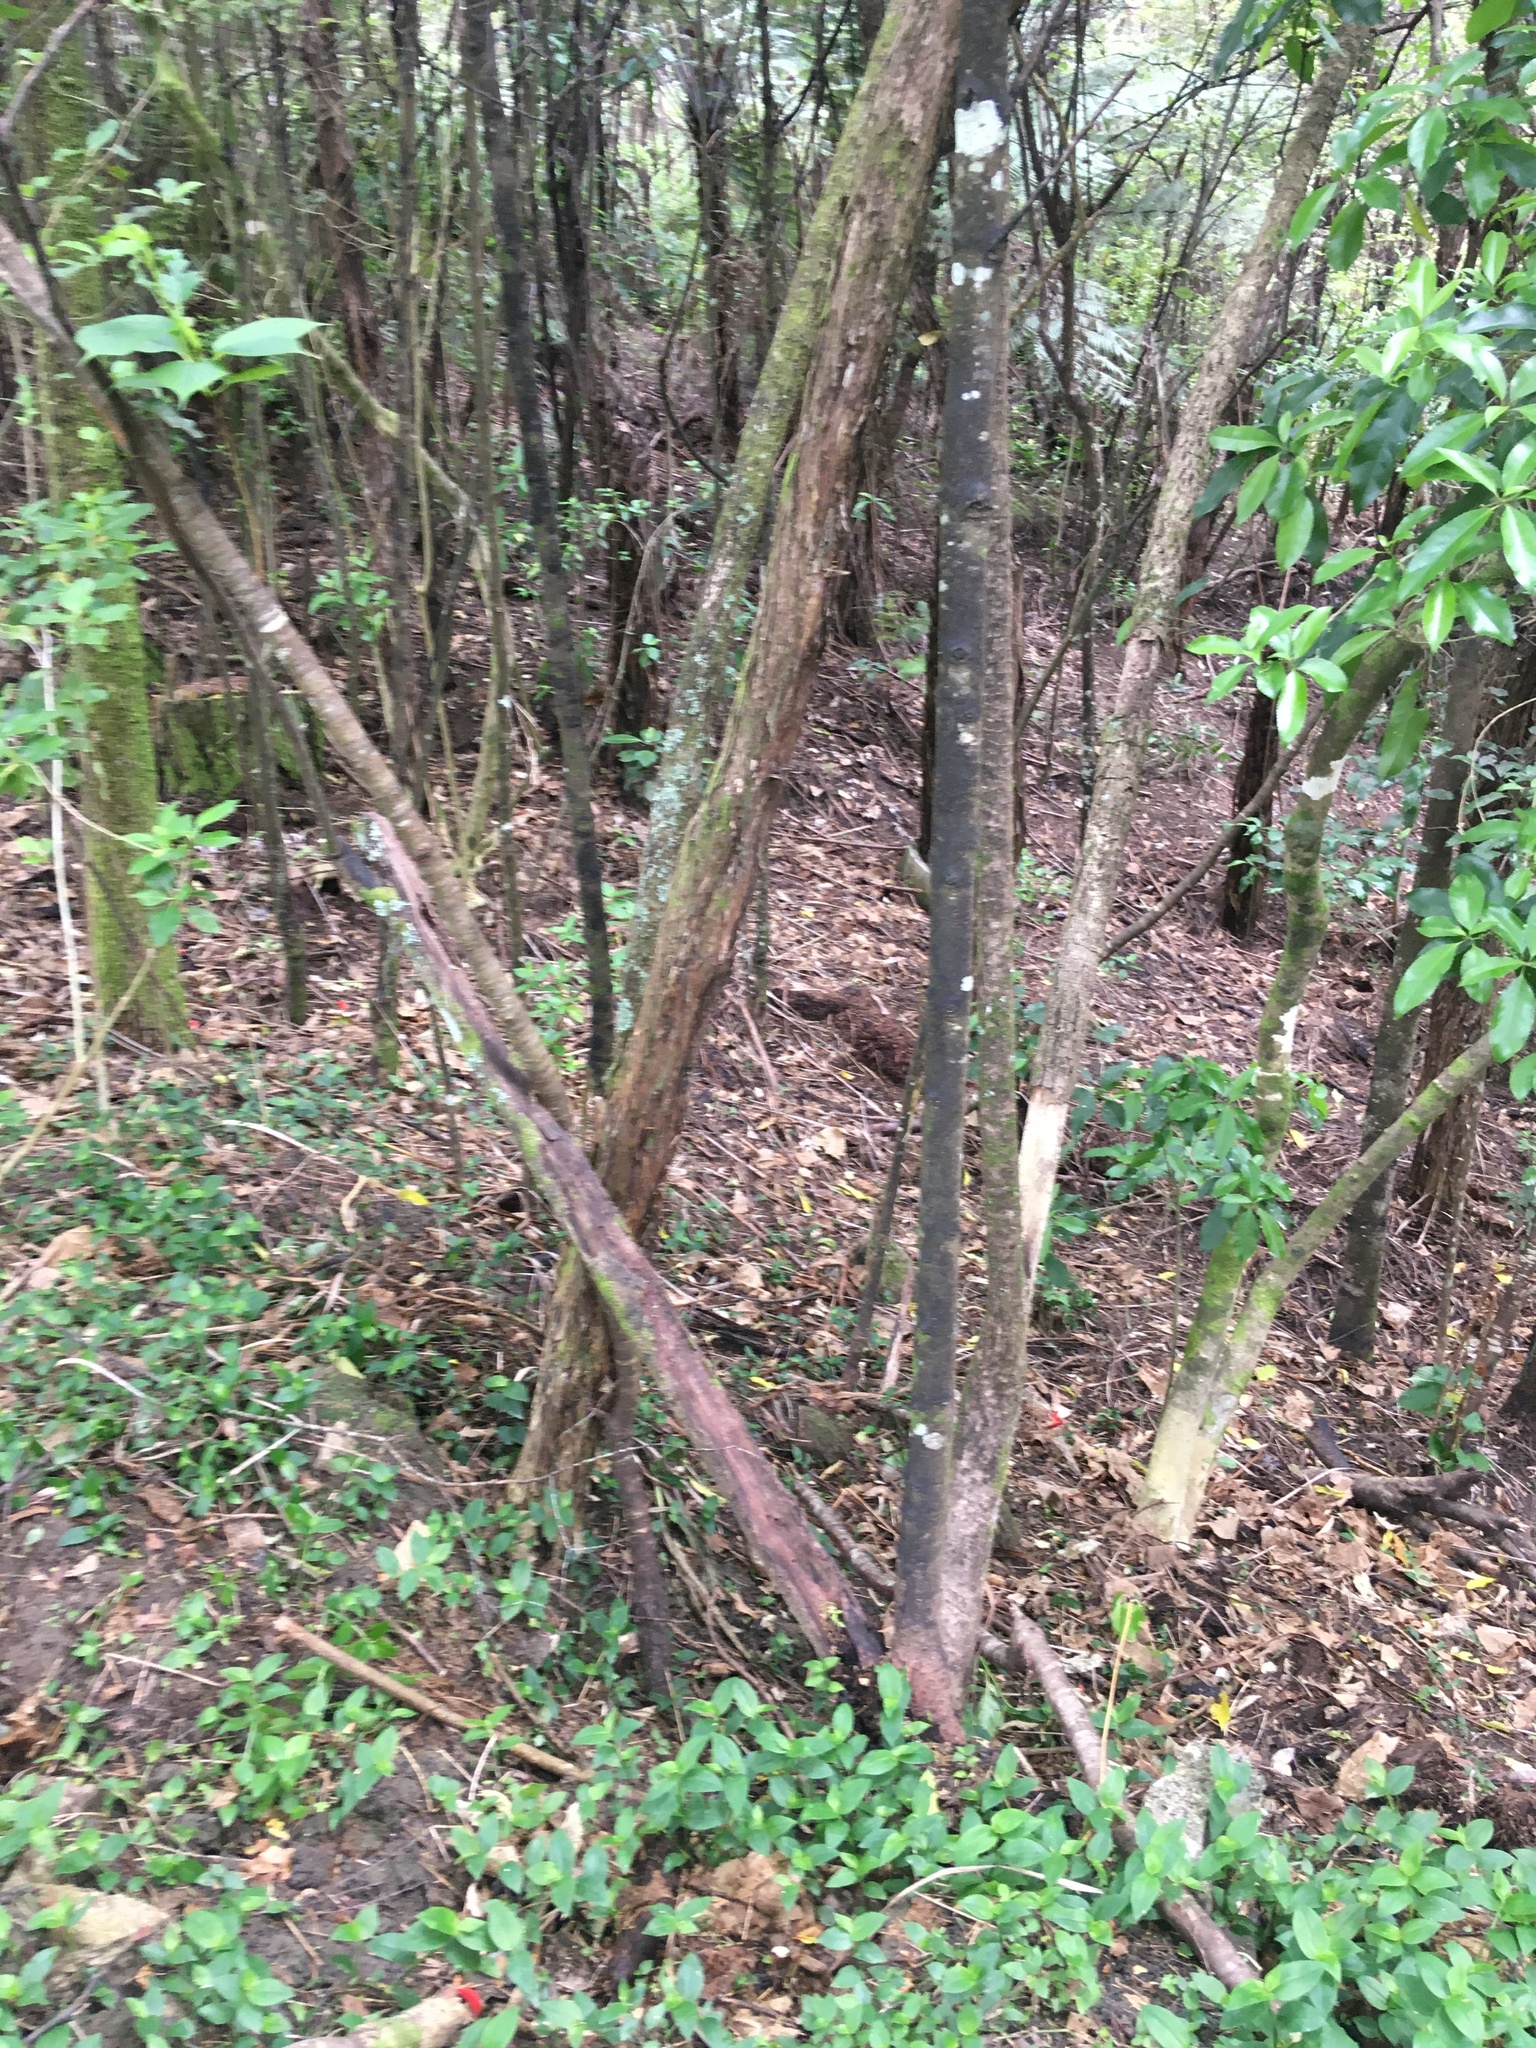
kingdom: Plantae
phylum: Tracheophyta
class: Liliopsida
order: Commelinales
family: Commelinaceae
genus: Tradescantia
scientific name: Tradescantia fluminensis
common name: Wandering-jew
